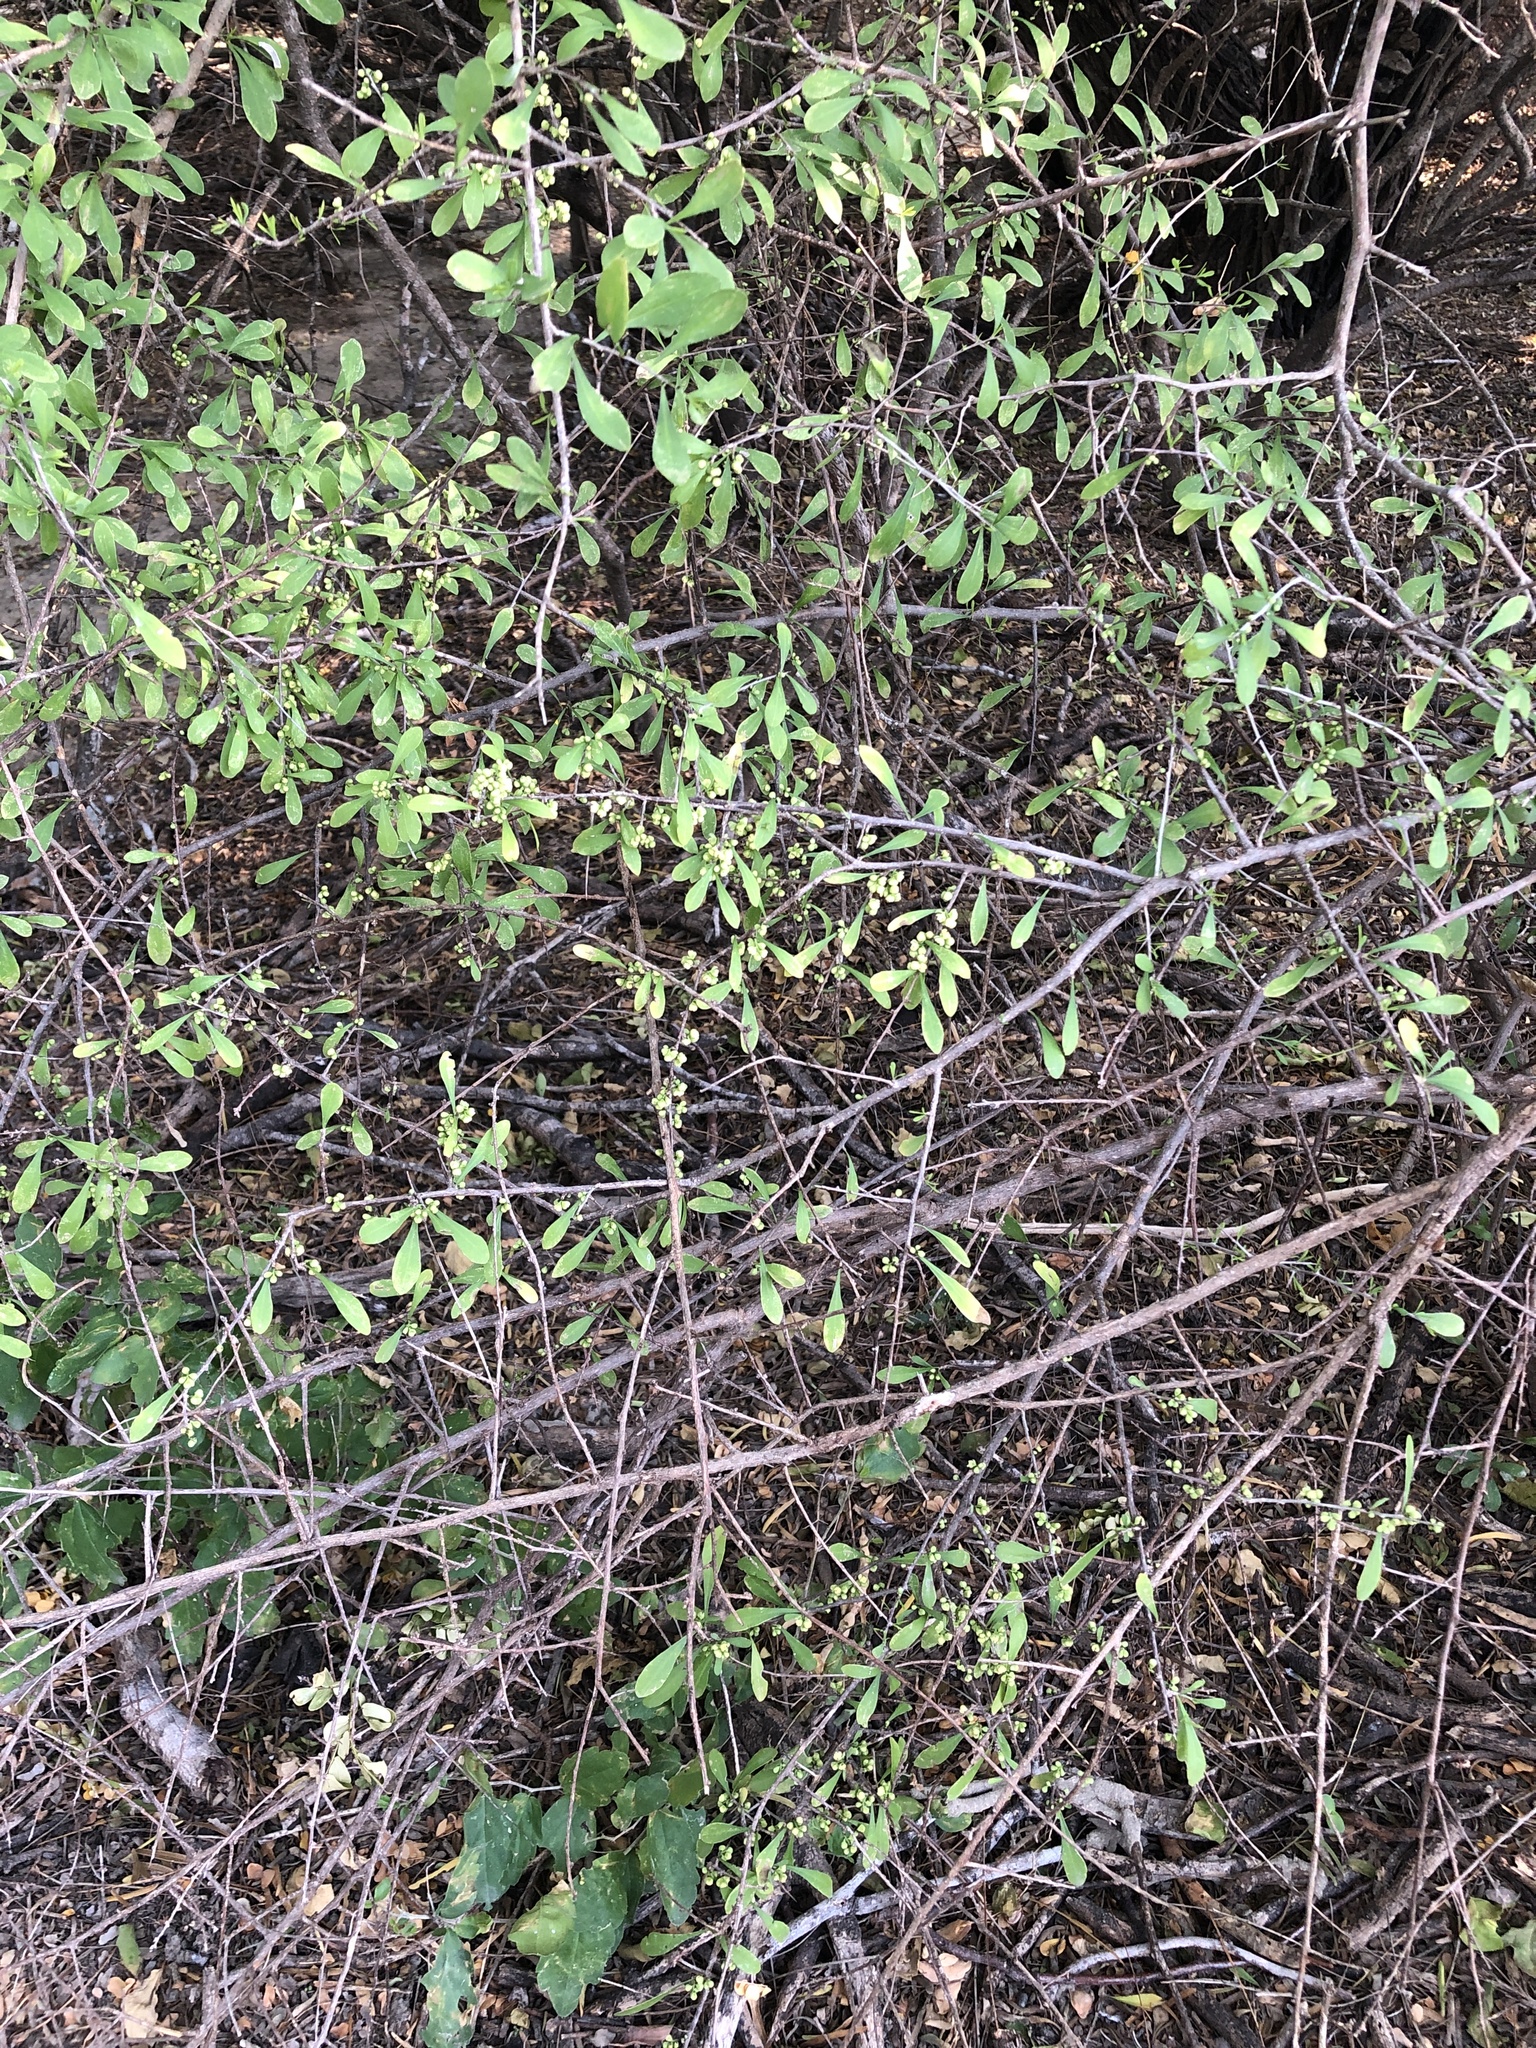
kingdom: Plantae
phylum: Tracheophyta
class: Magnoliopsida
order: Caryophyllales
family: Achatocarpaceae
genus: Phaulothamnus
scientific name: Phaulothamnus spinescens
